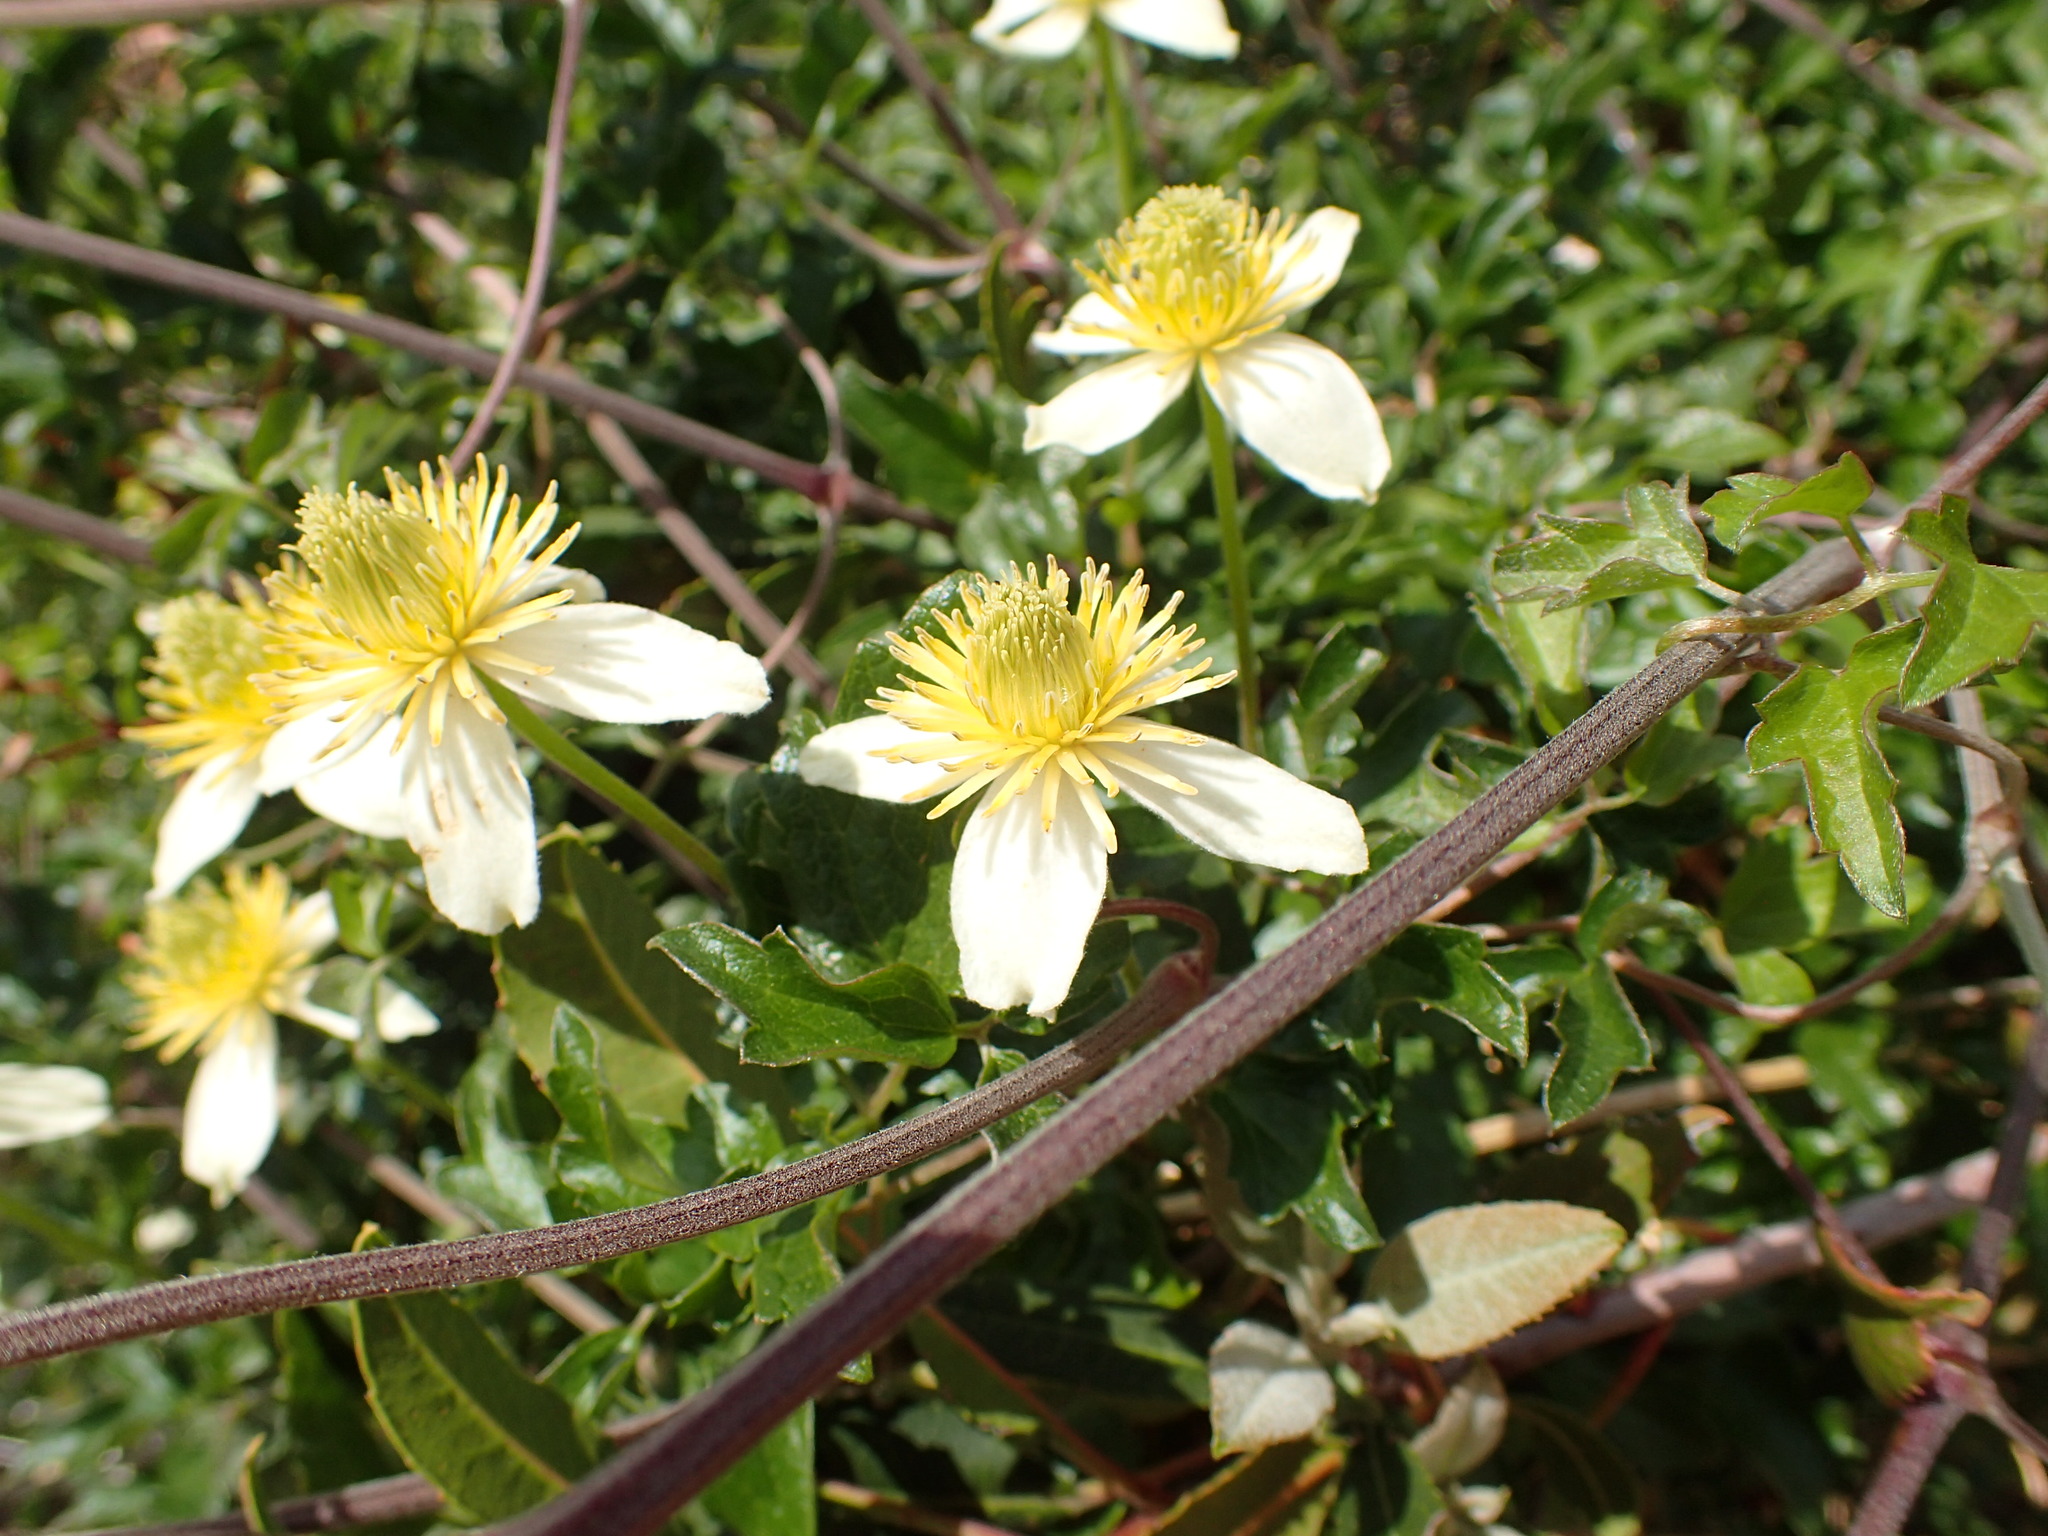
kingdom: Plantae
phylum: Tracheophyta
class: Magnoliopsida
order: Ranunculales
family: Ranunculaceae
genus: Clematis
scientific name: Clematis lasiantha
